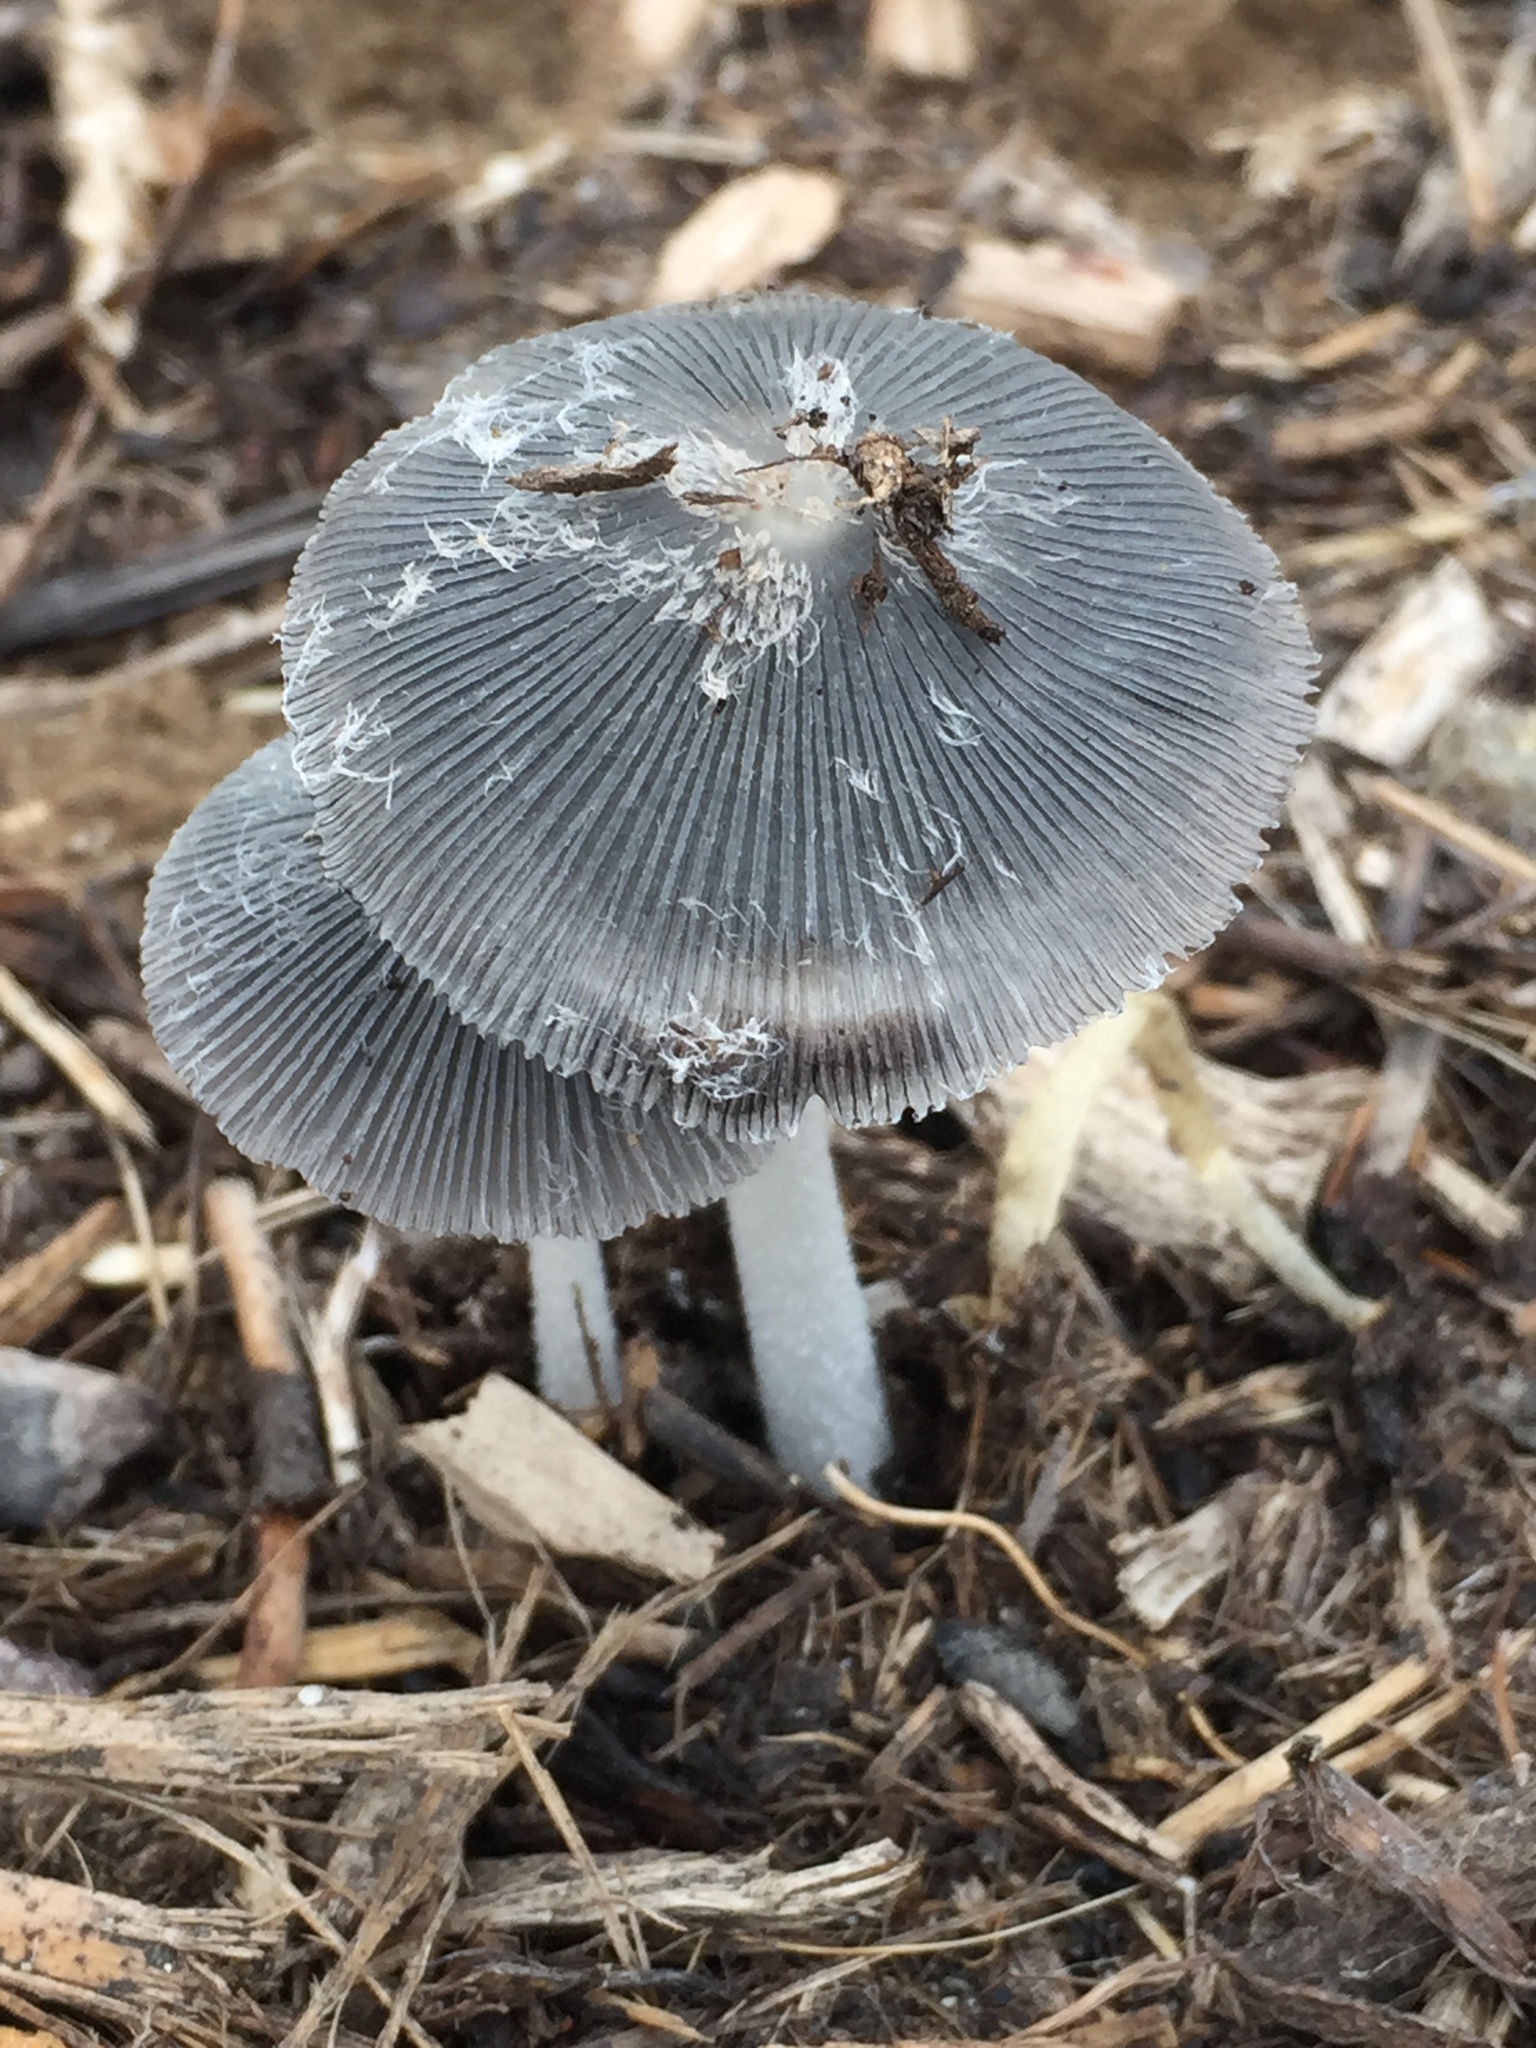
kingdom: Fungi
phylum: Basidiomycota
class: Agaricomycetes
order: Agaricales
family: Psathyrellaceae
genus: Coprinopsis
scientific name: Coprinopsis lagopus
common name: Hare'sfoot inkcap
